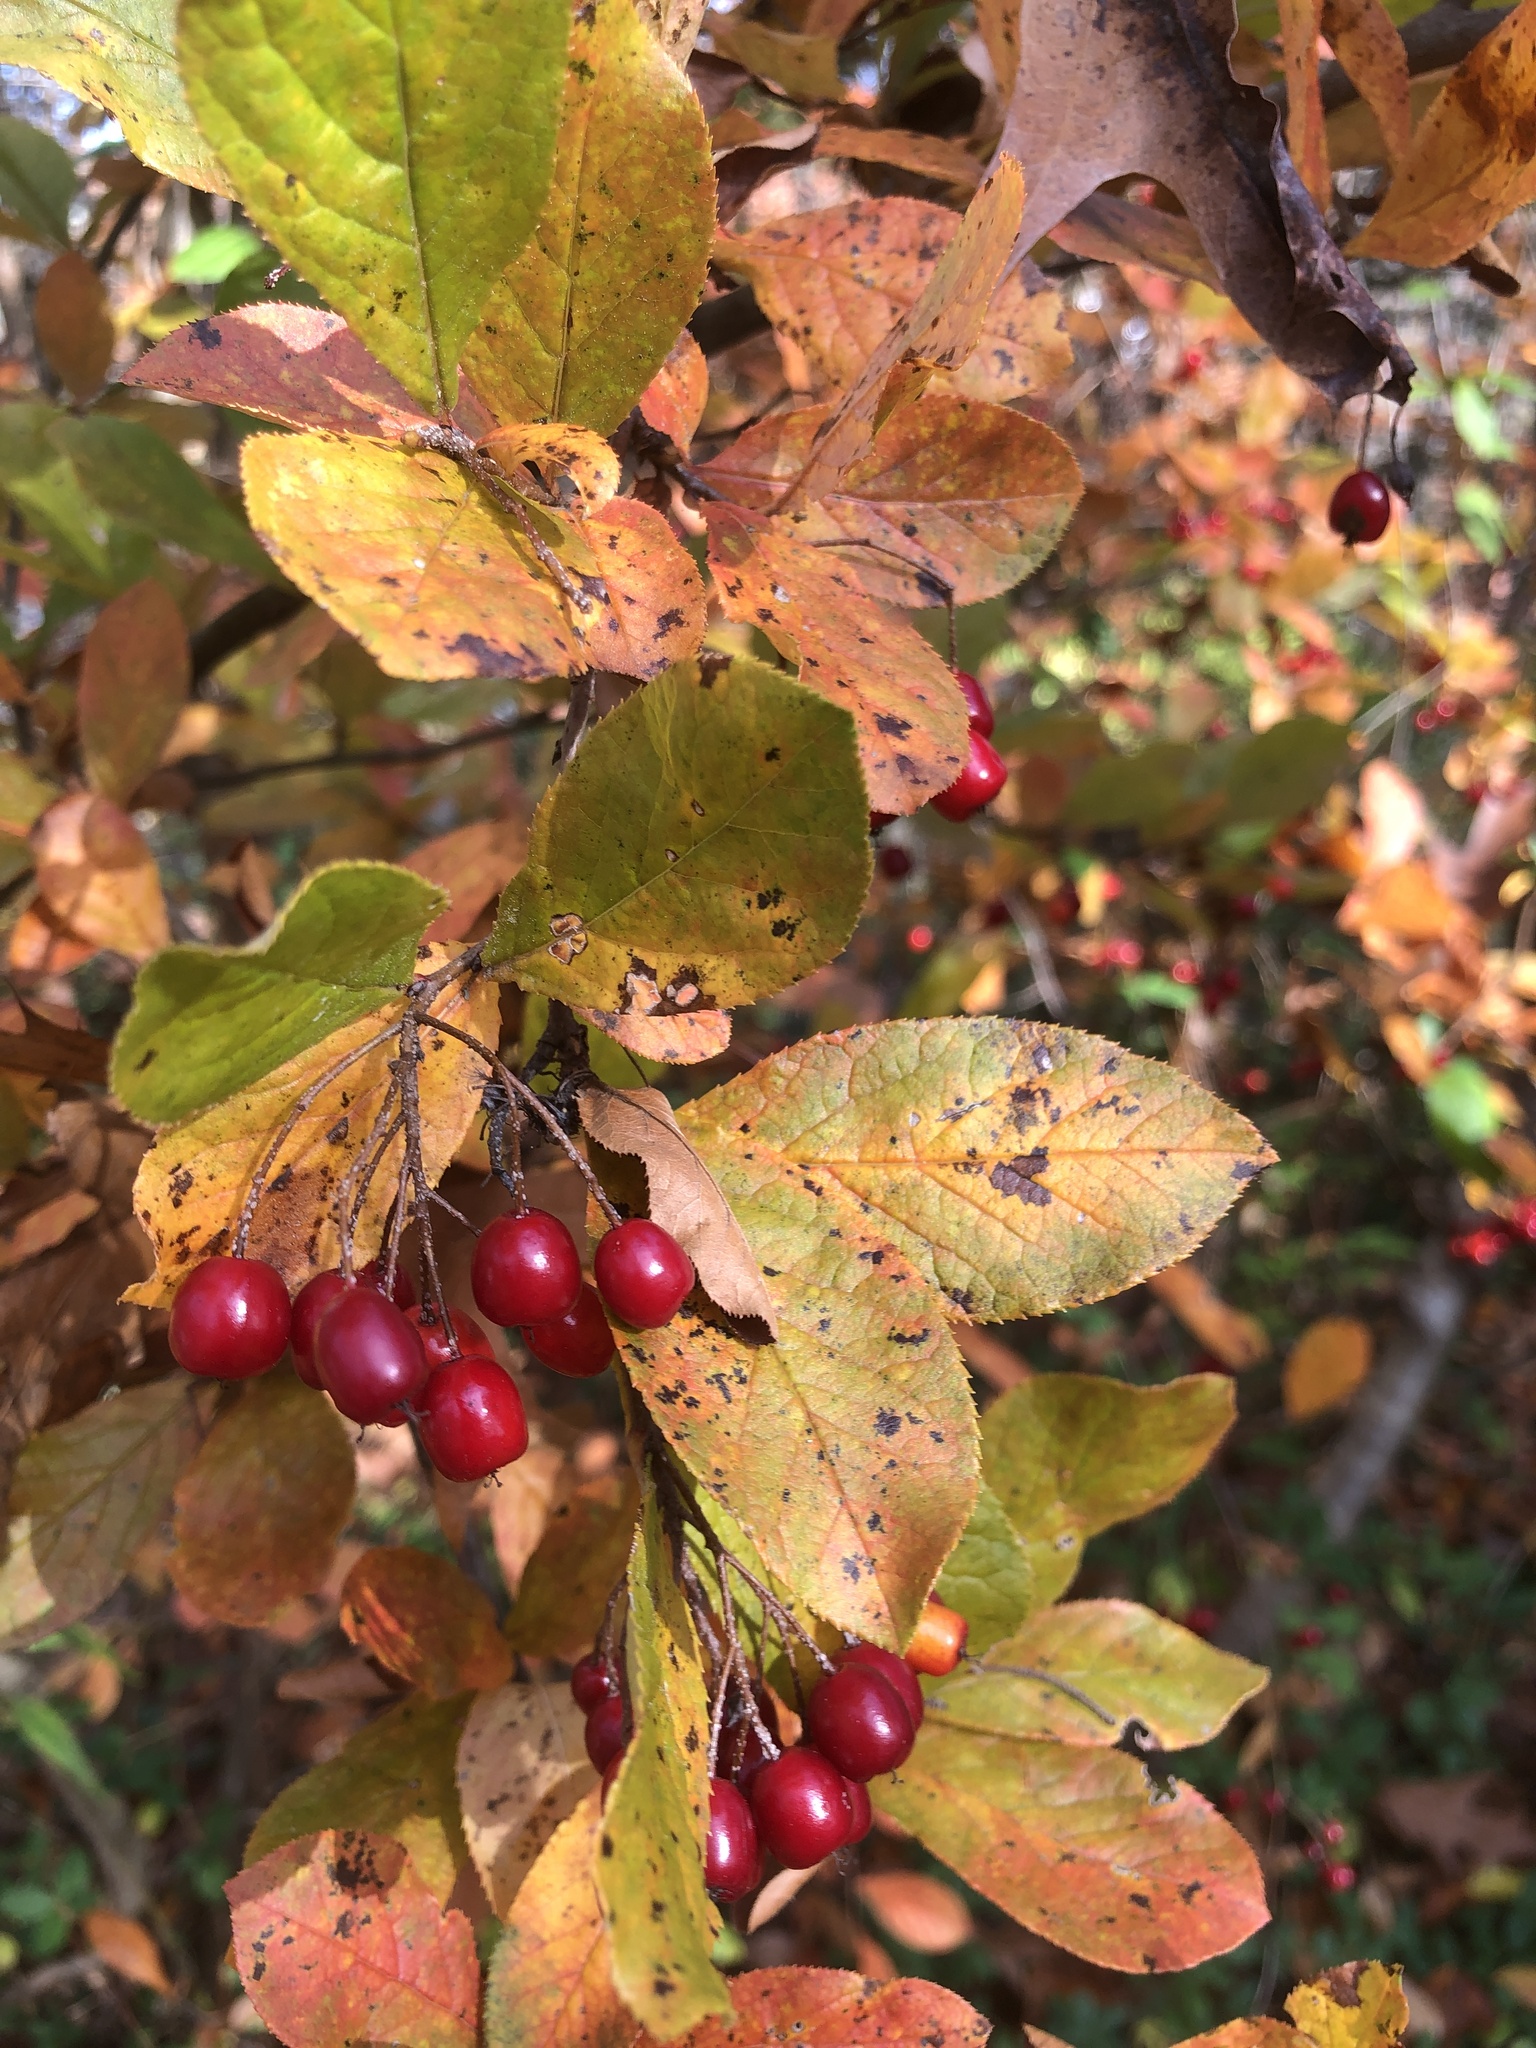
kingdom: Plantae
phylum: Tracheophyta
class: Magnoliopsida
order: Rosales
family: Rosaceae
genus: Pourthiaea
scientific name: Pourthiaea villosa
